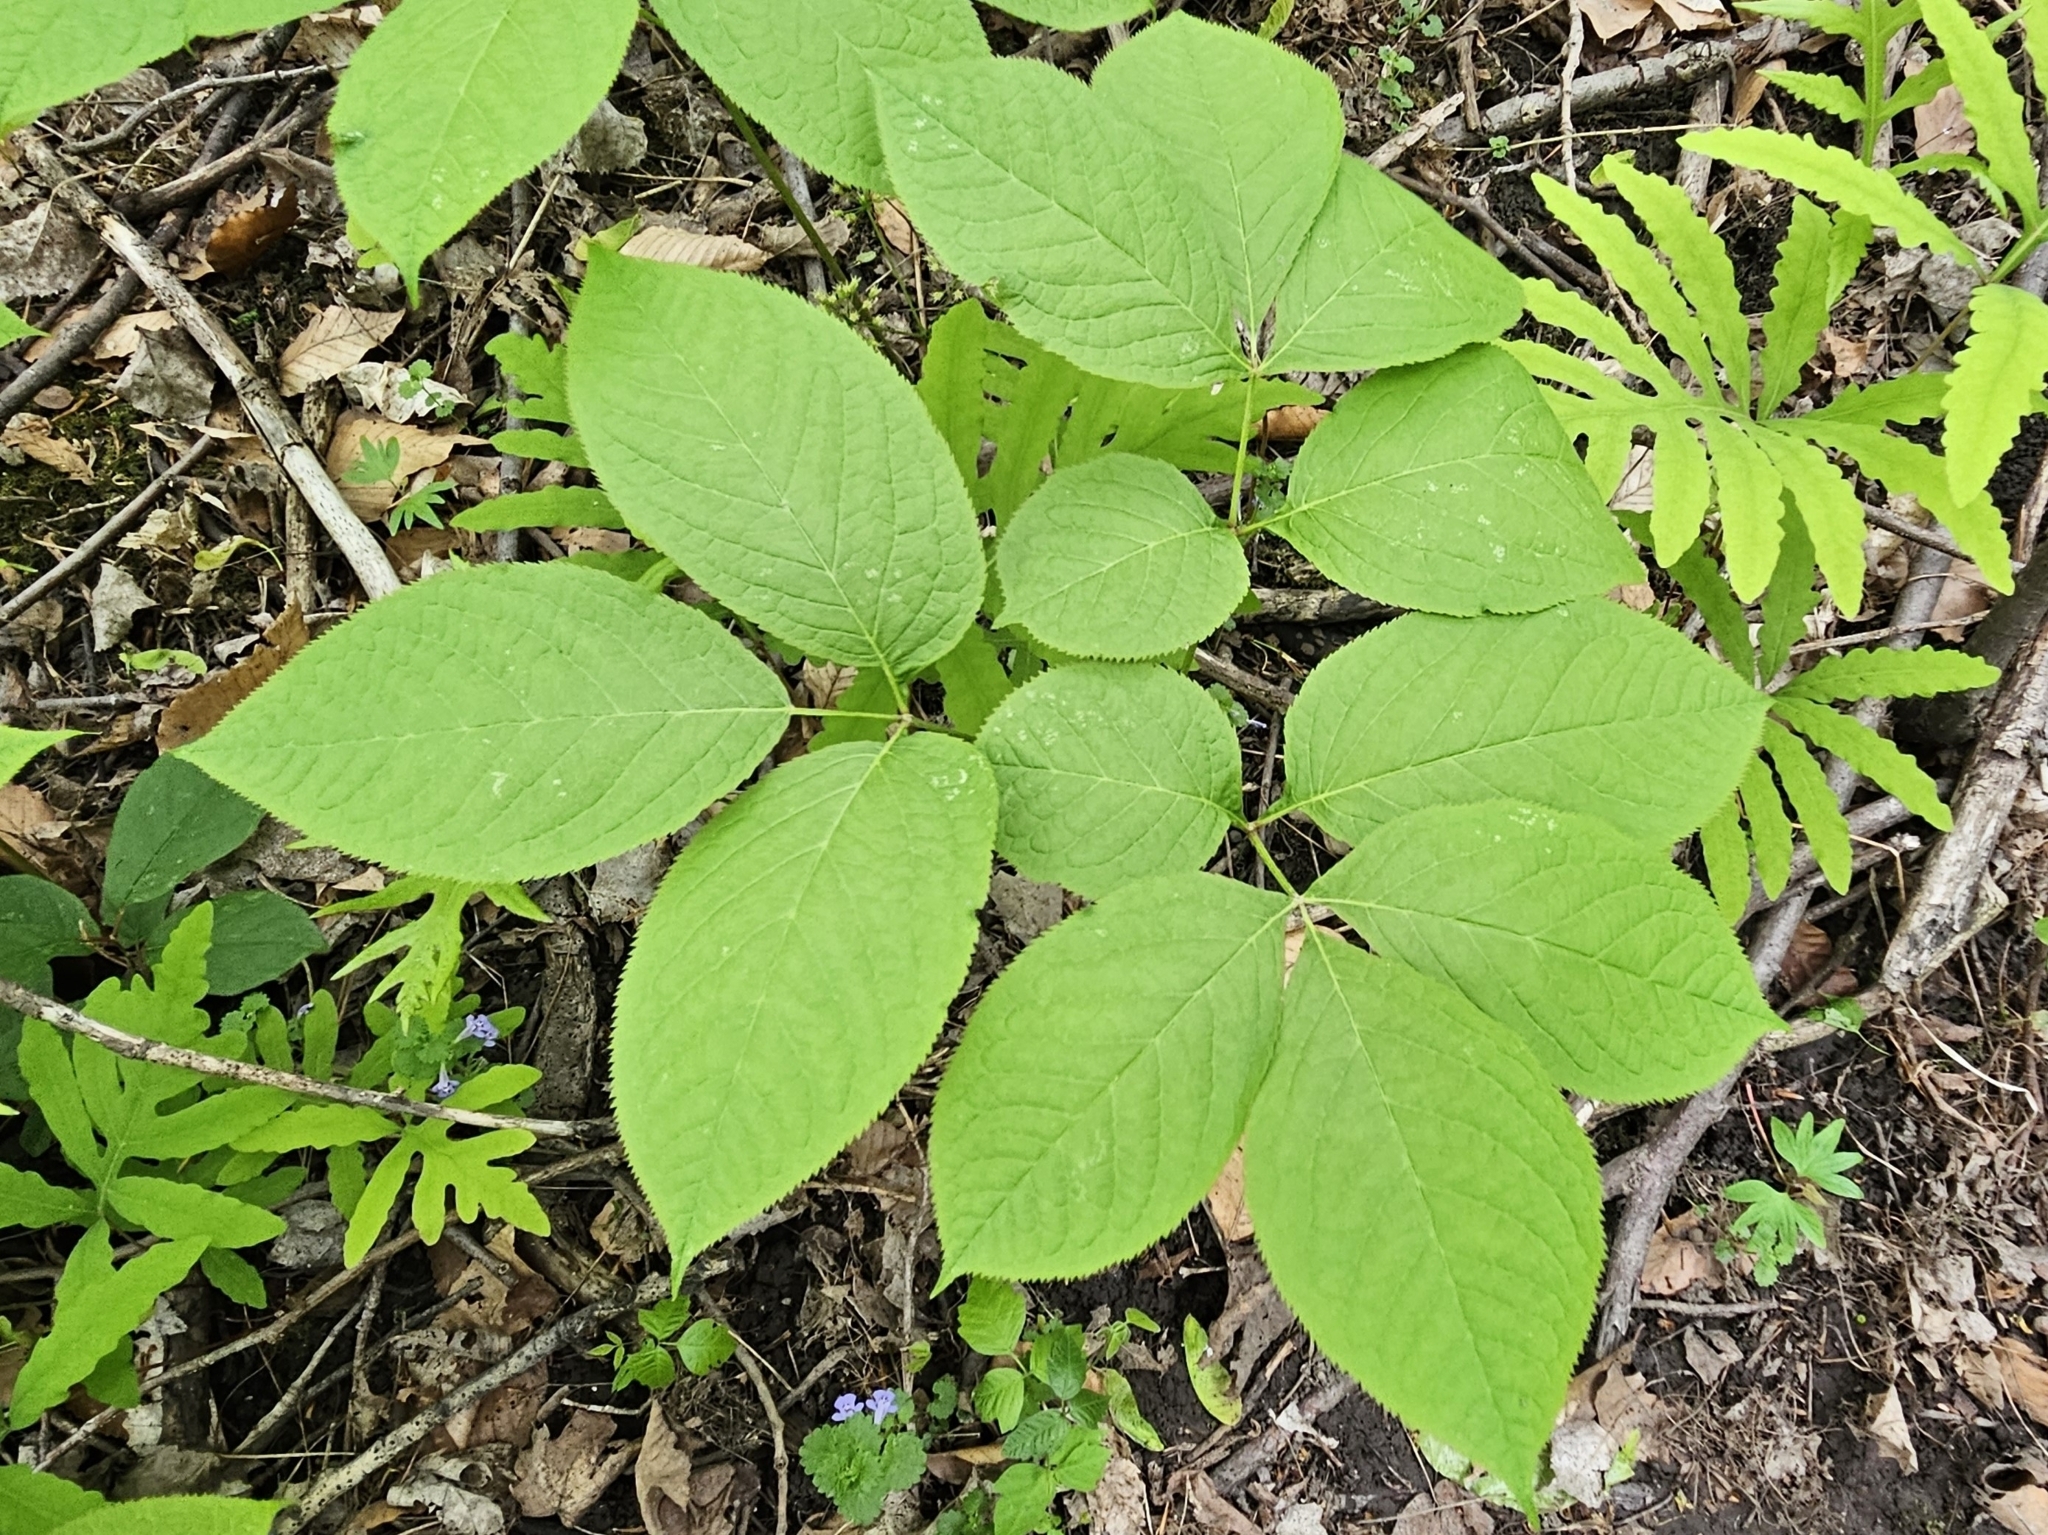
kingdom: Plantae
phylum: Tracheophyta
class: Magnoliopsida
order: Apiales
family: Araliaceae
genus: Aralia
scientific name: Aralia nudicaulis
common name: Wild sarsaparilla
